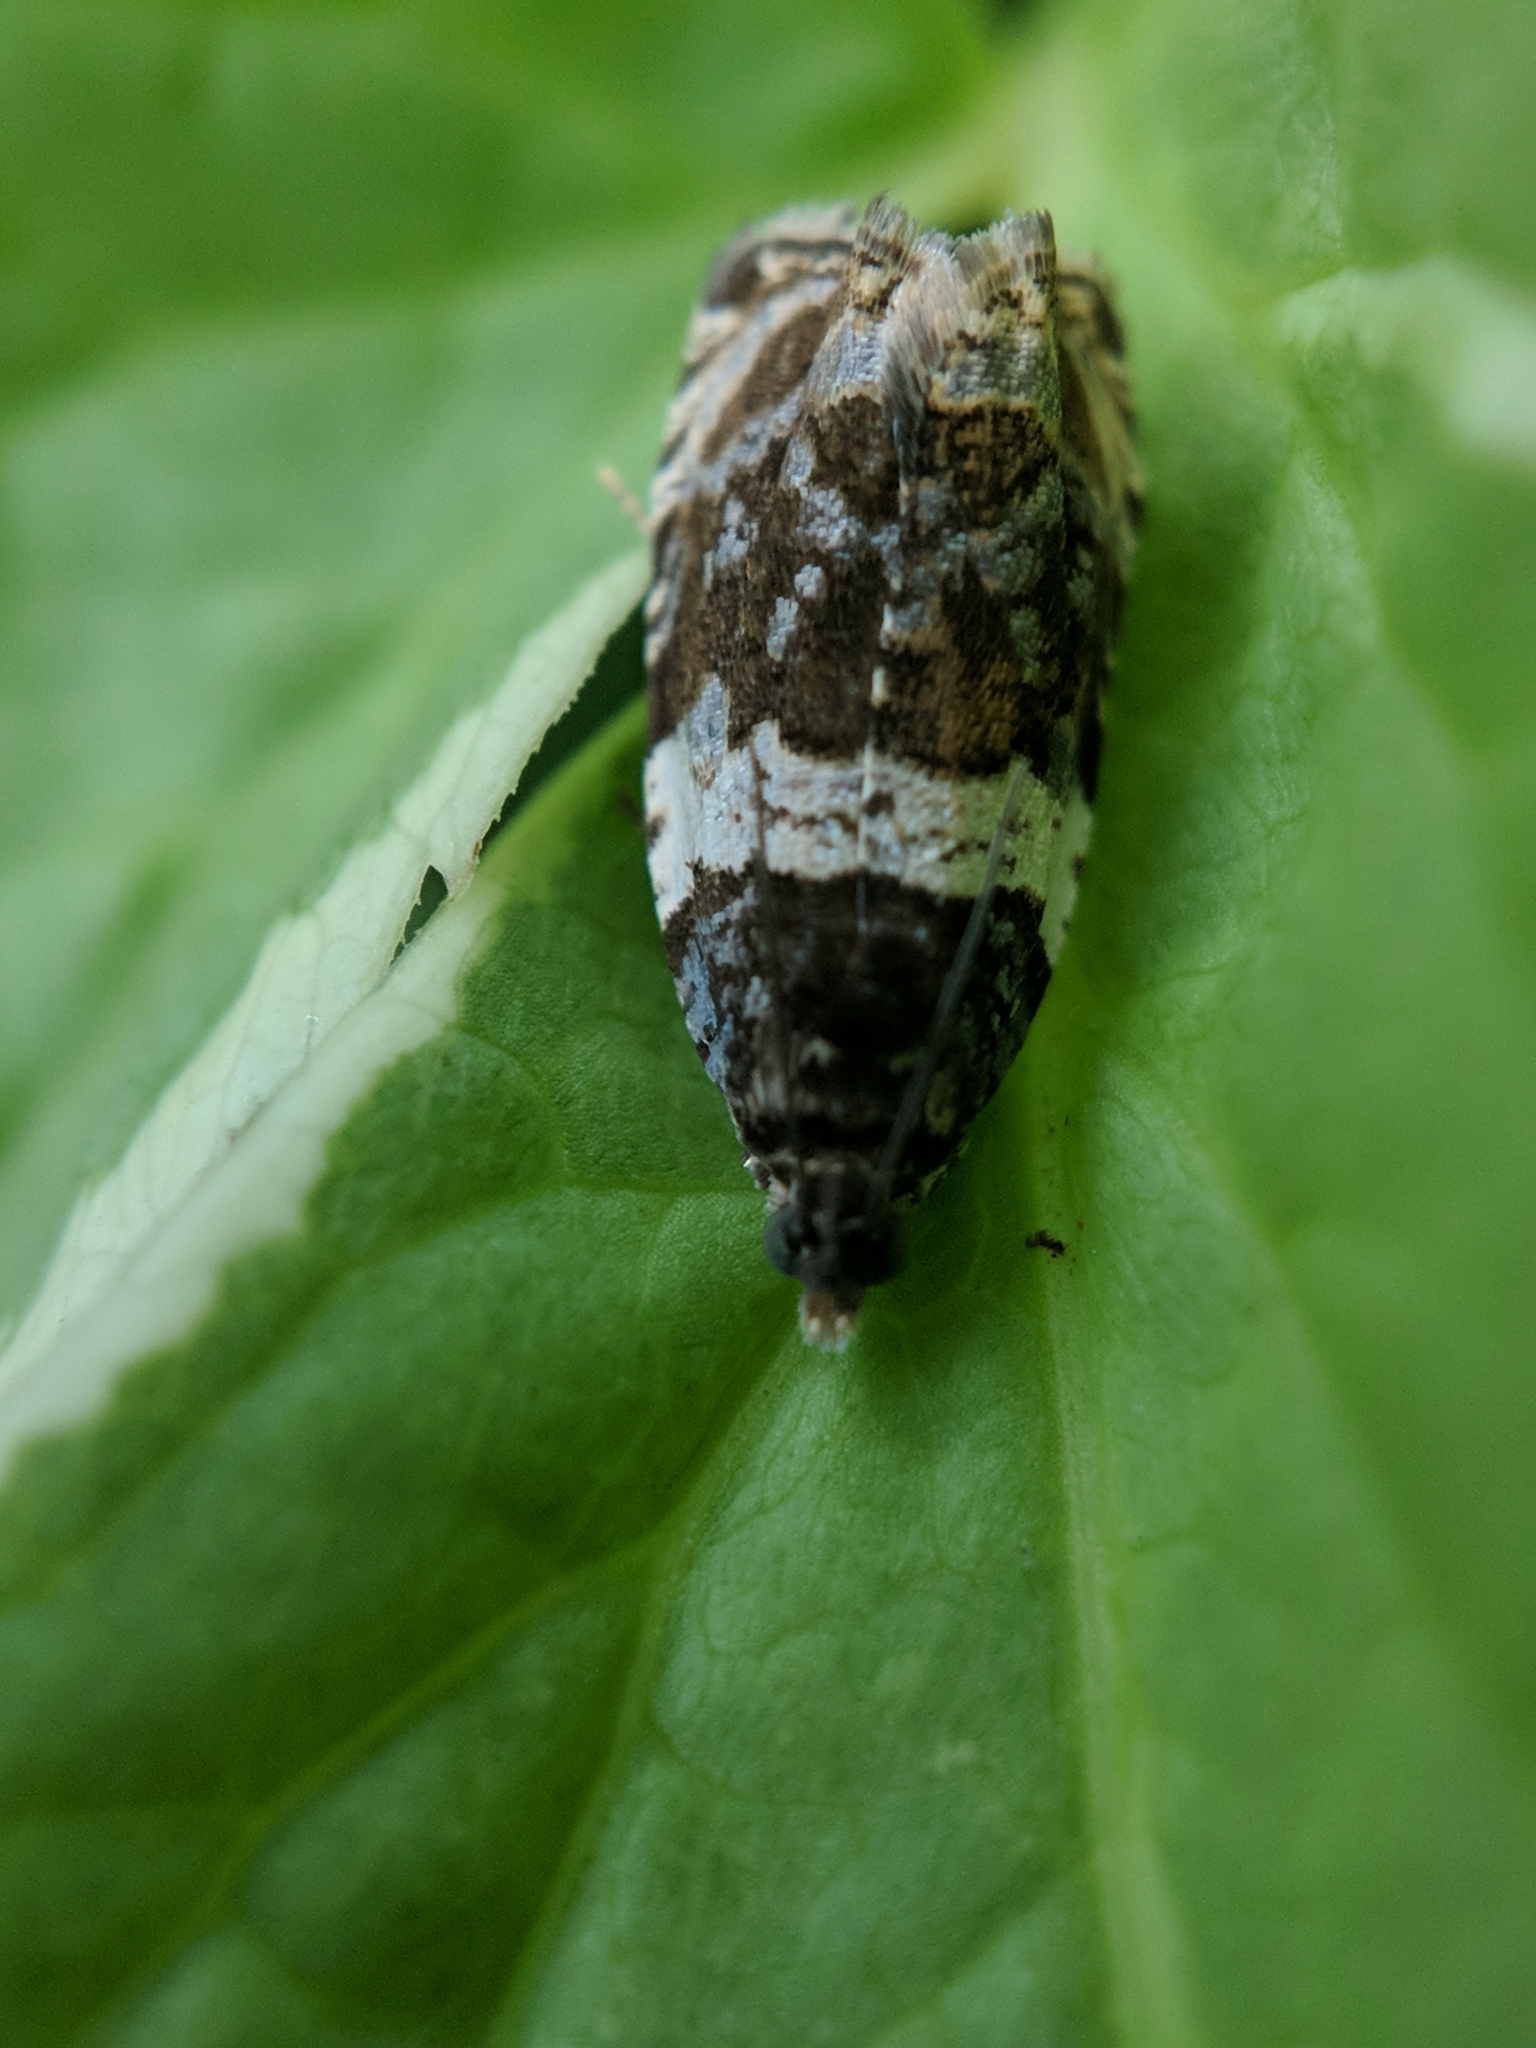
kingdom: Animalia
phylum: Arthropoda
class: Insecta
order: Lepidoptera
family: Tortricidae
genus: Olethreutes
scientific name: Olethreutes fasciatana
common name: Banded olethreutes moth
